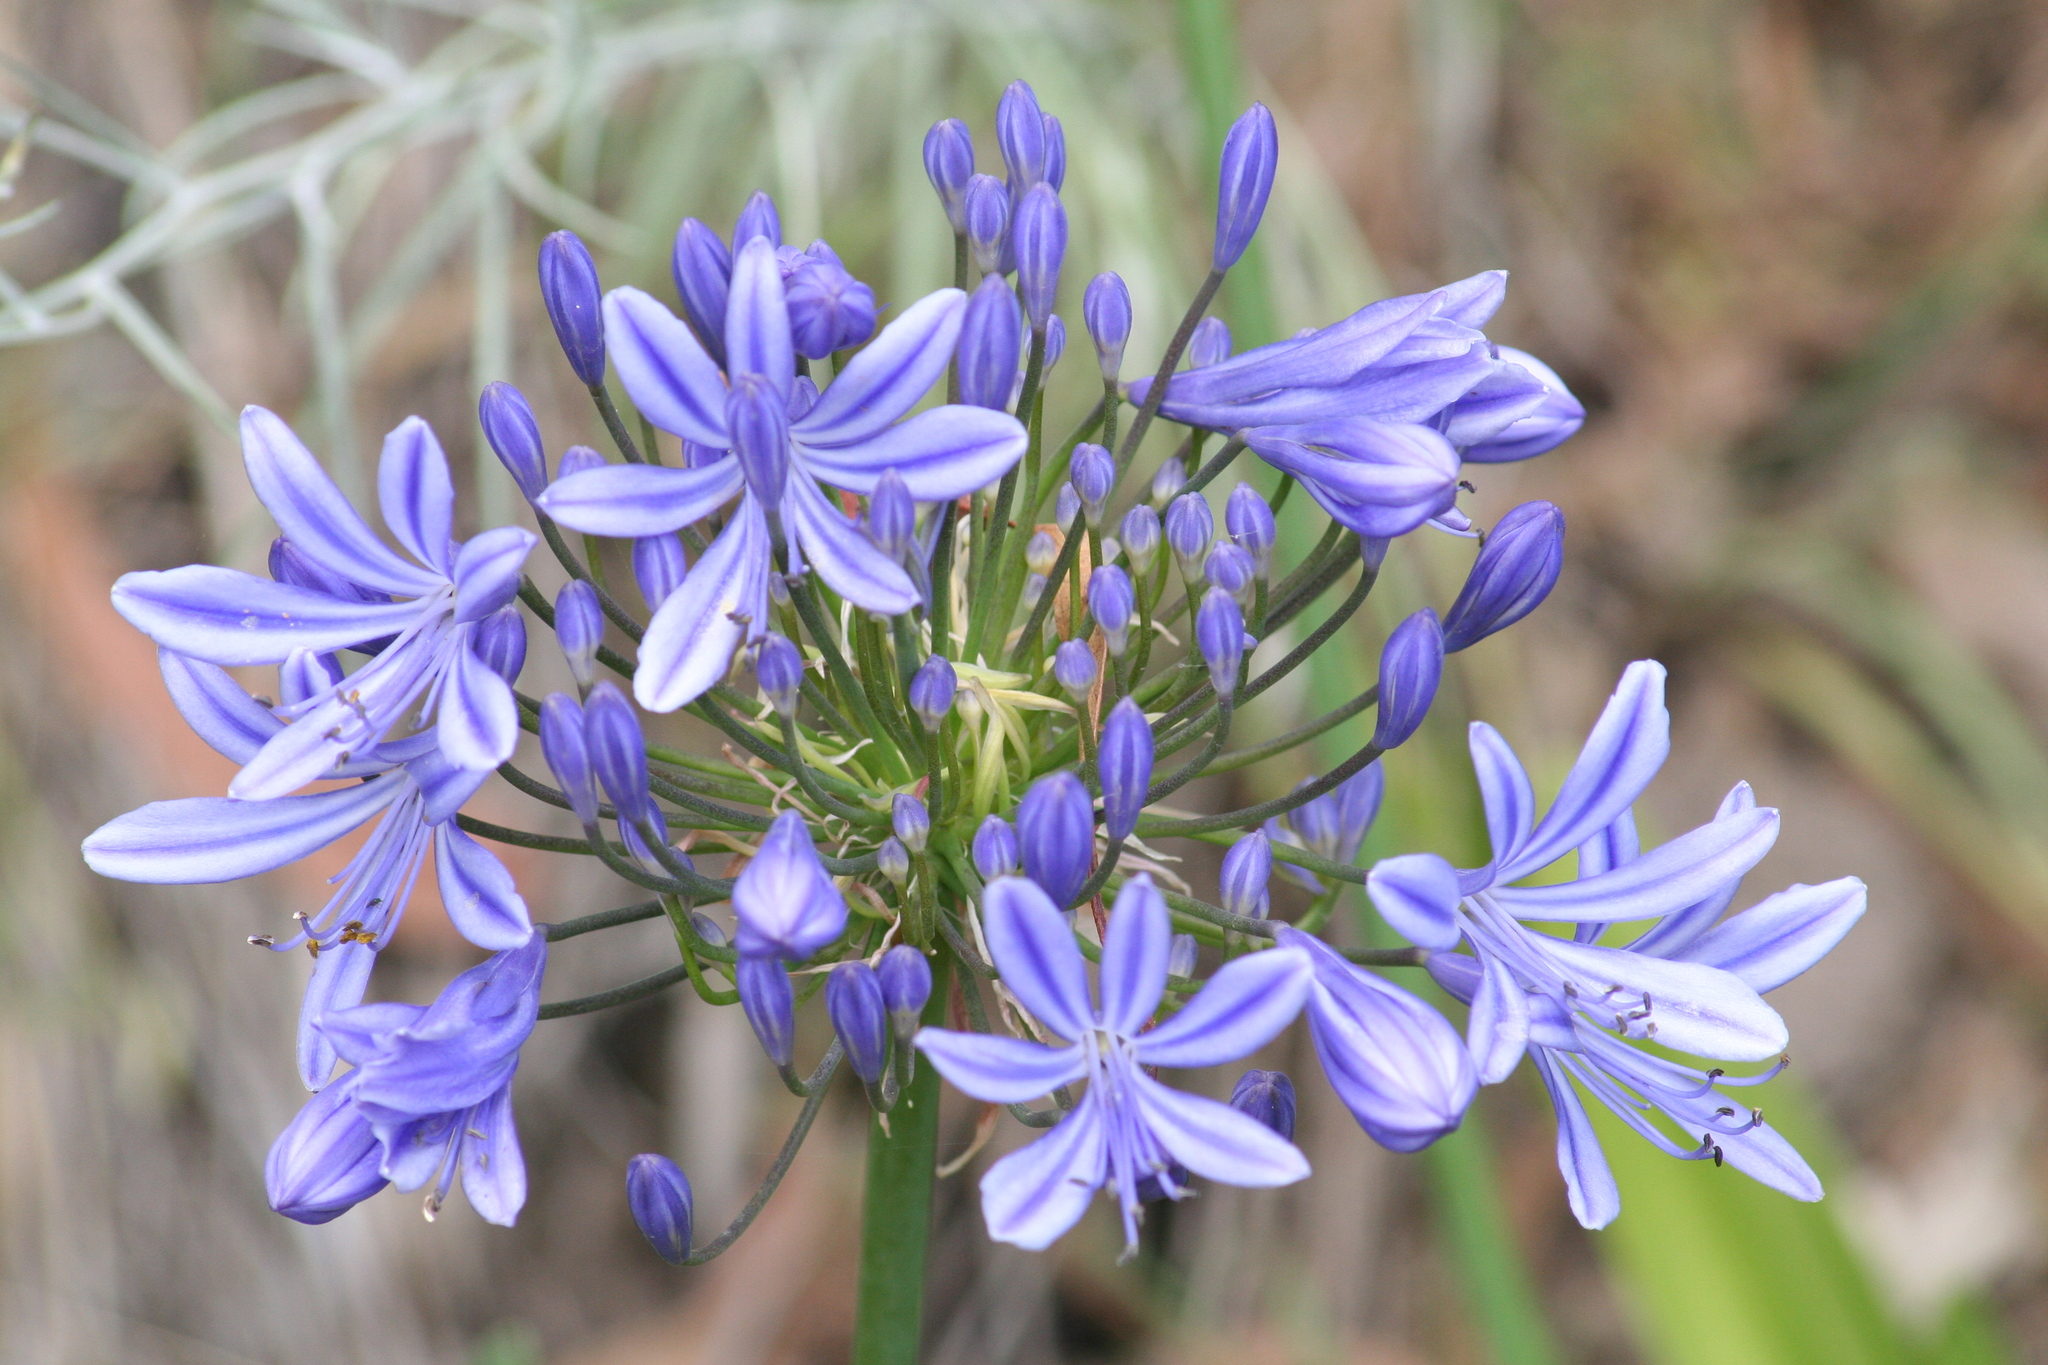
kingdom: Plantae
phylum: Tracheophyta
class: Liliopsida
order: Asparagales
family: Amaryllidaceae
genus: Agapanthus
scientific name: Agapanthus praecox
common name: African-lily
